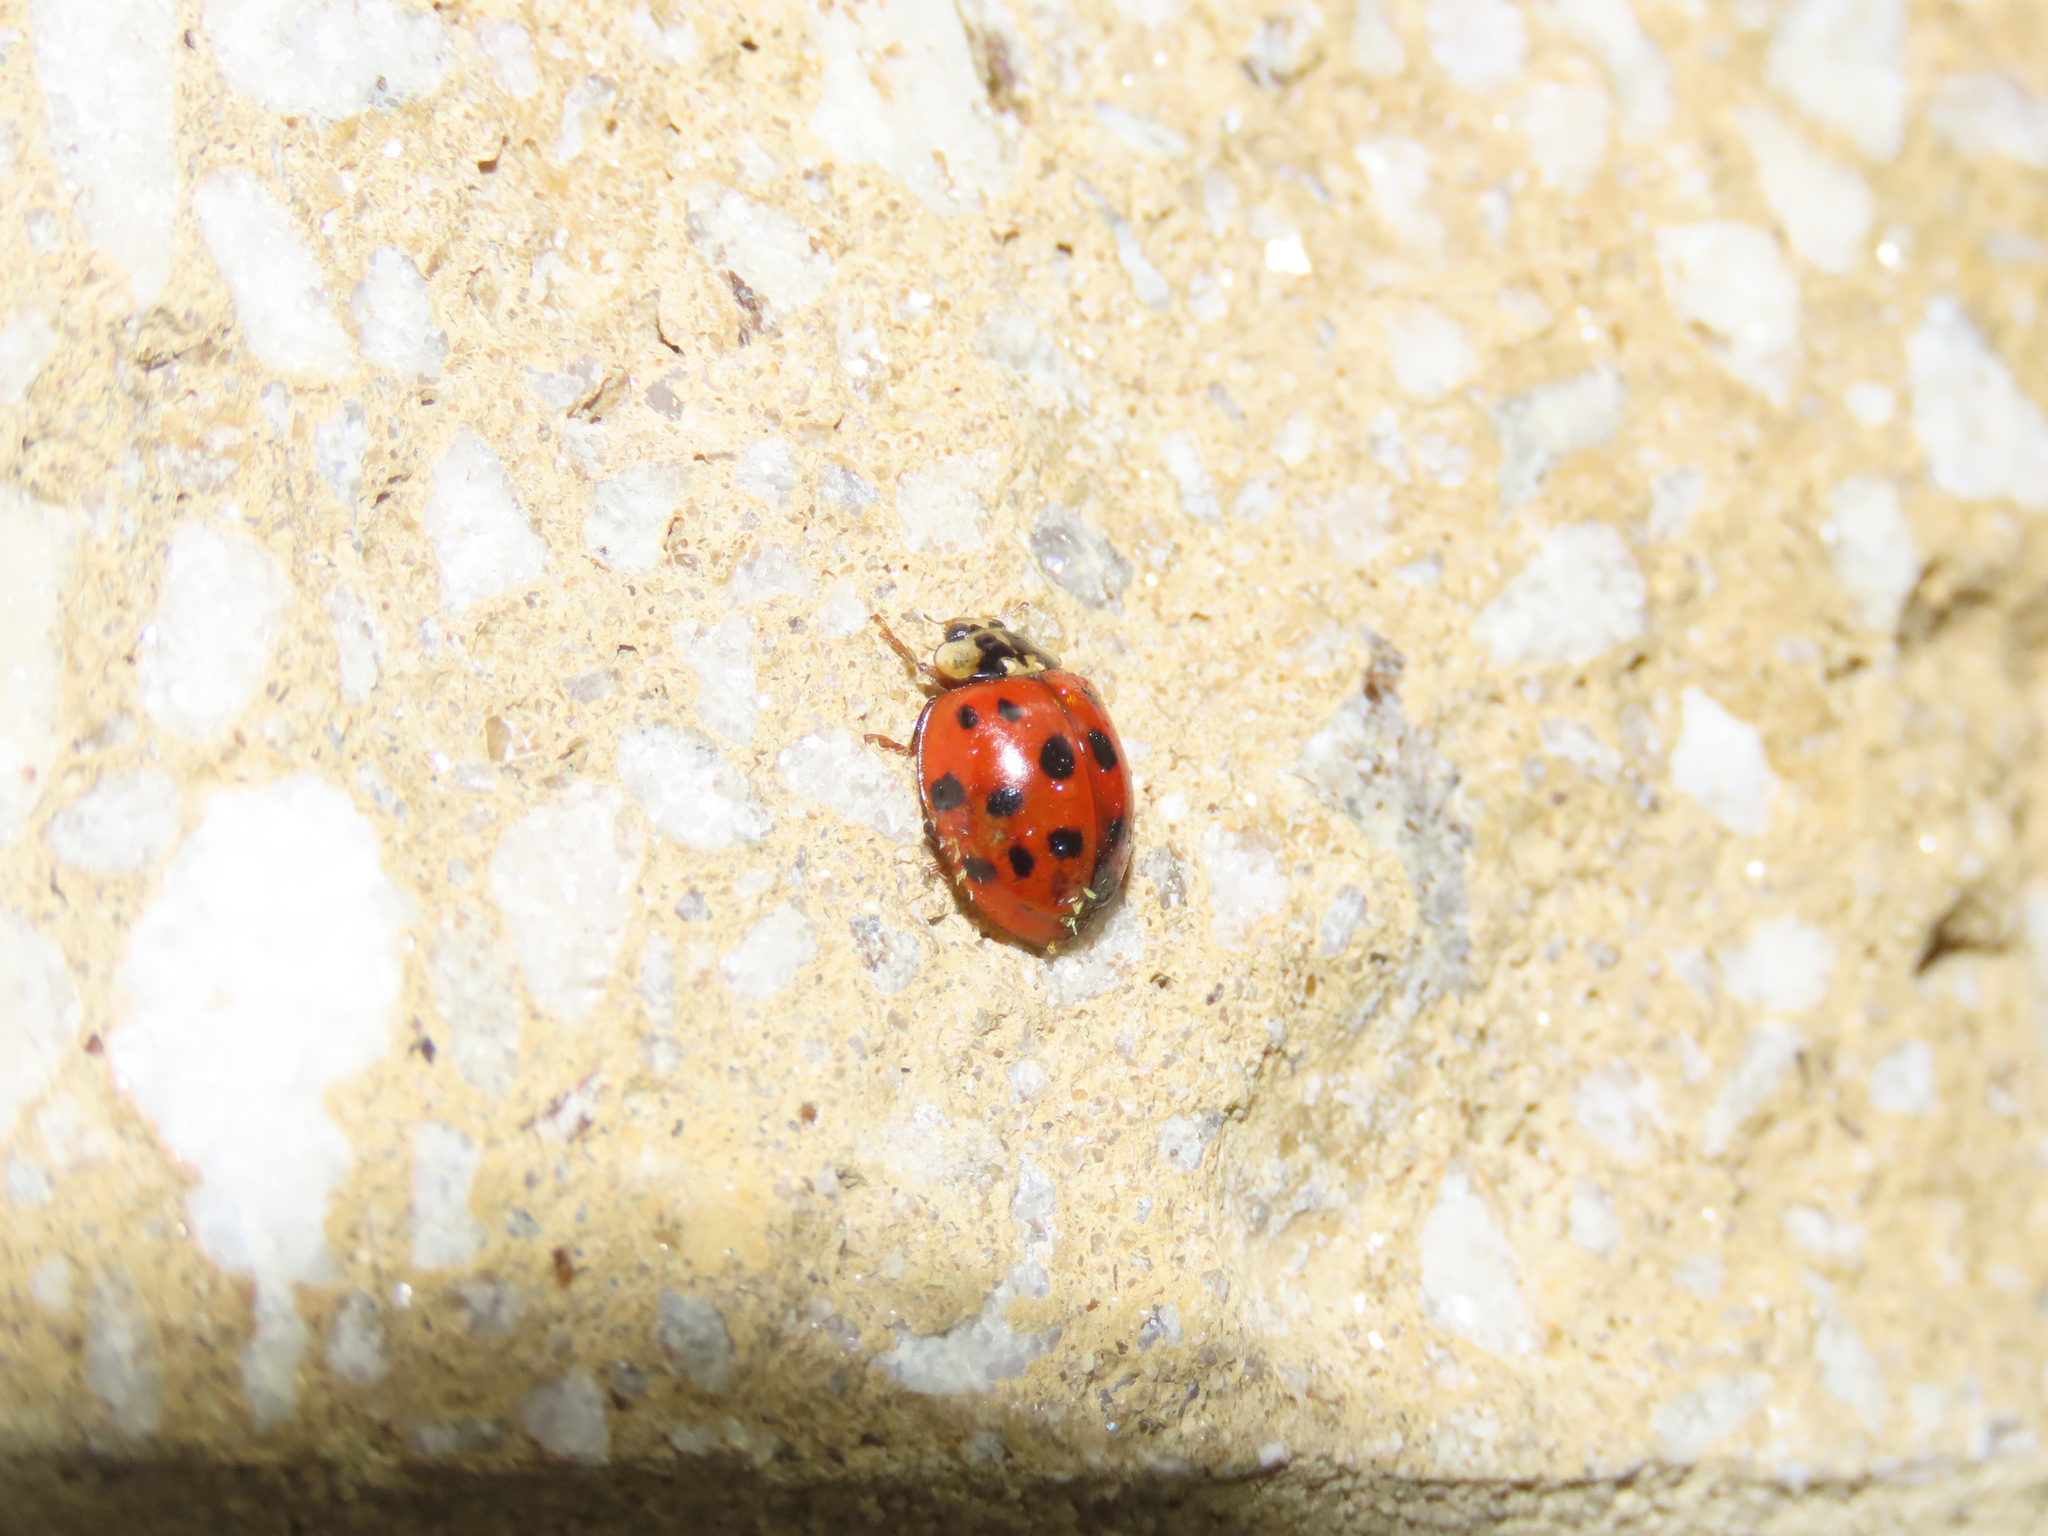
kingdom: Fungi
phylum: Ascomycota
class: Laboulbeniomycetes
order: Laboulbeniales
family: Laboulbeniaceae
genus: Hesperomyces
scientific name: Hesperomyces harmoniae
